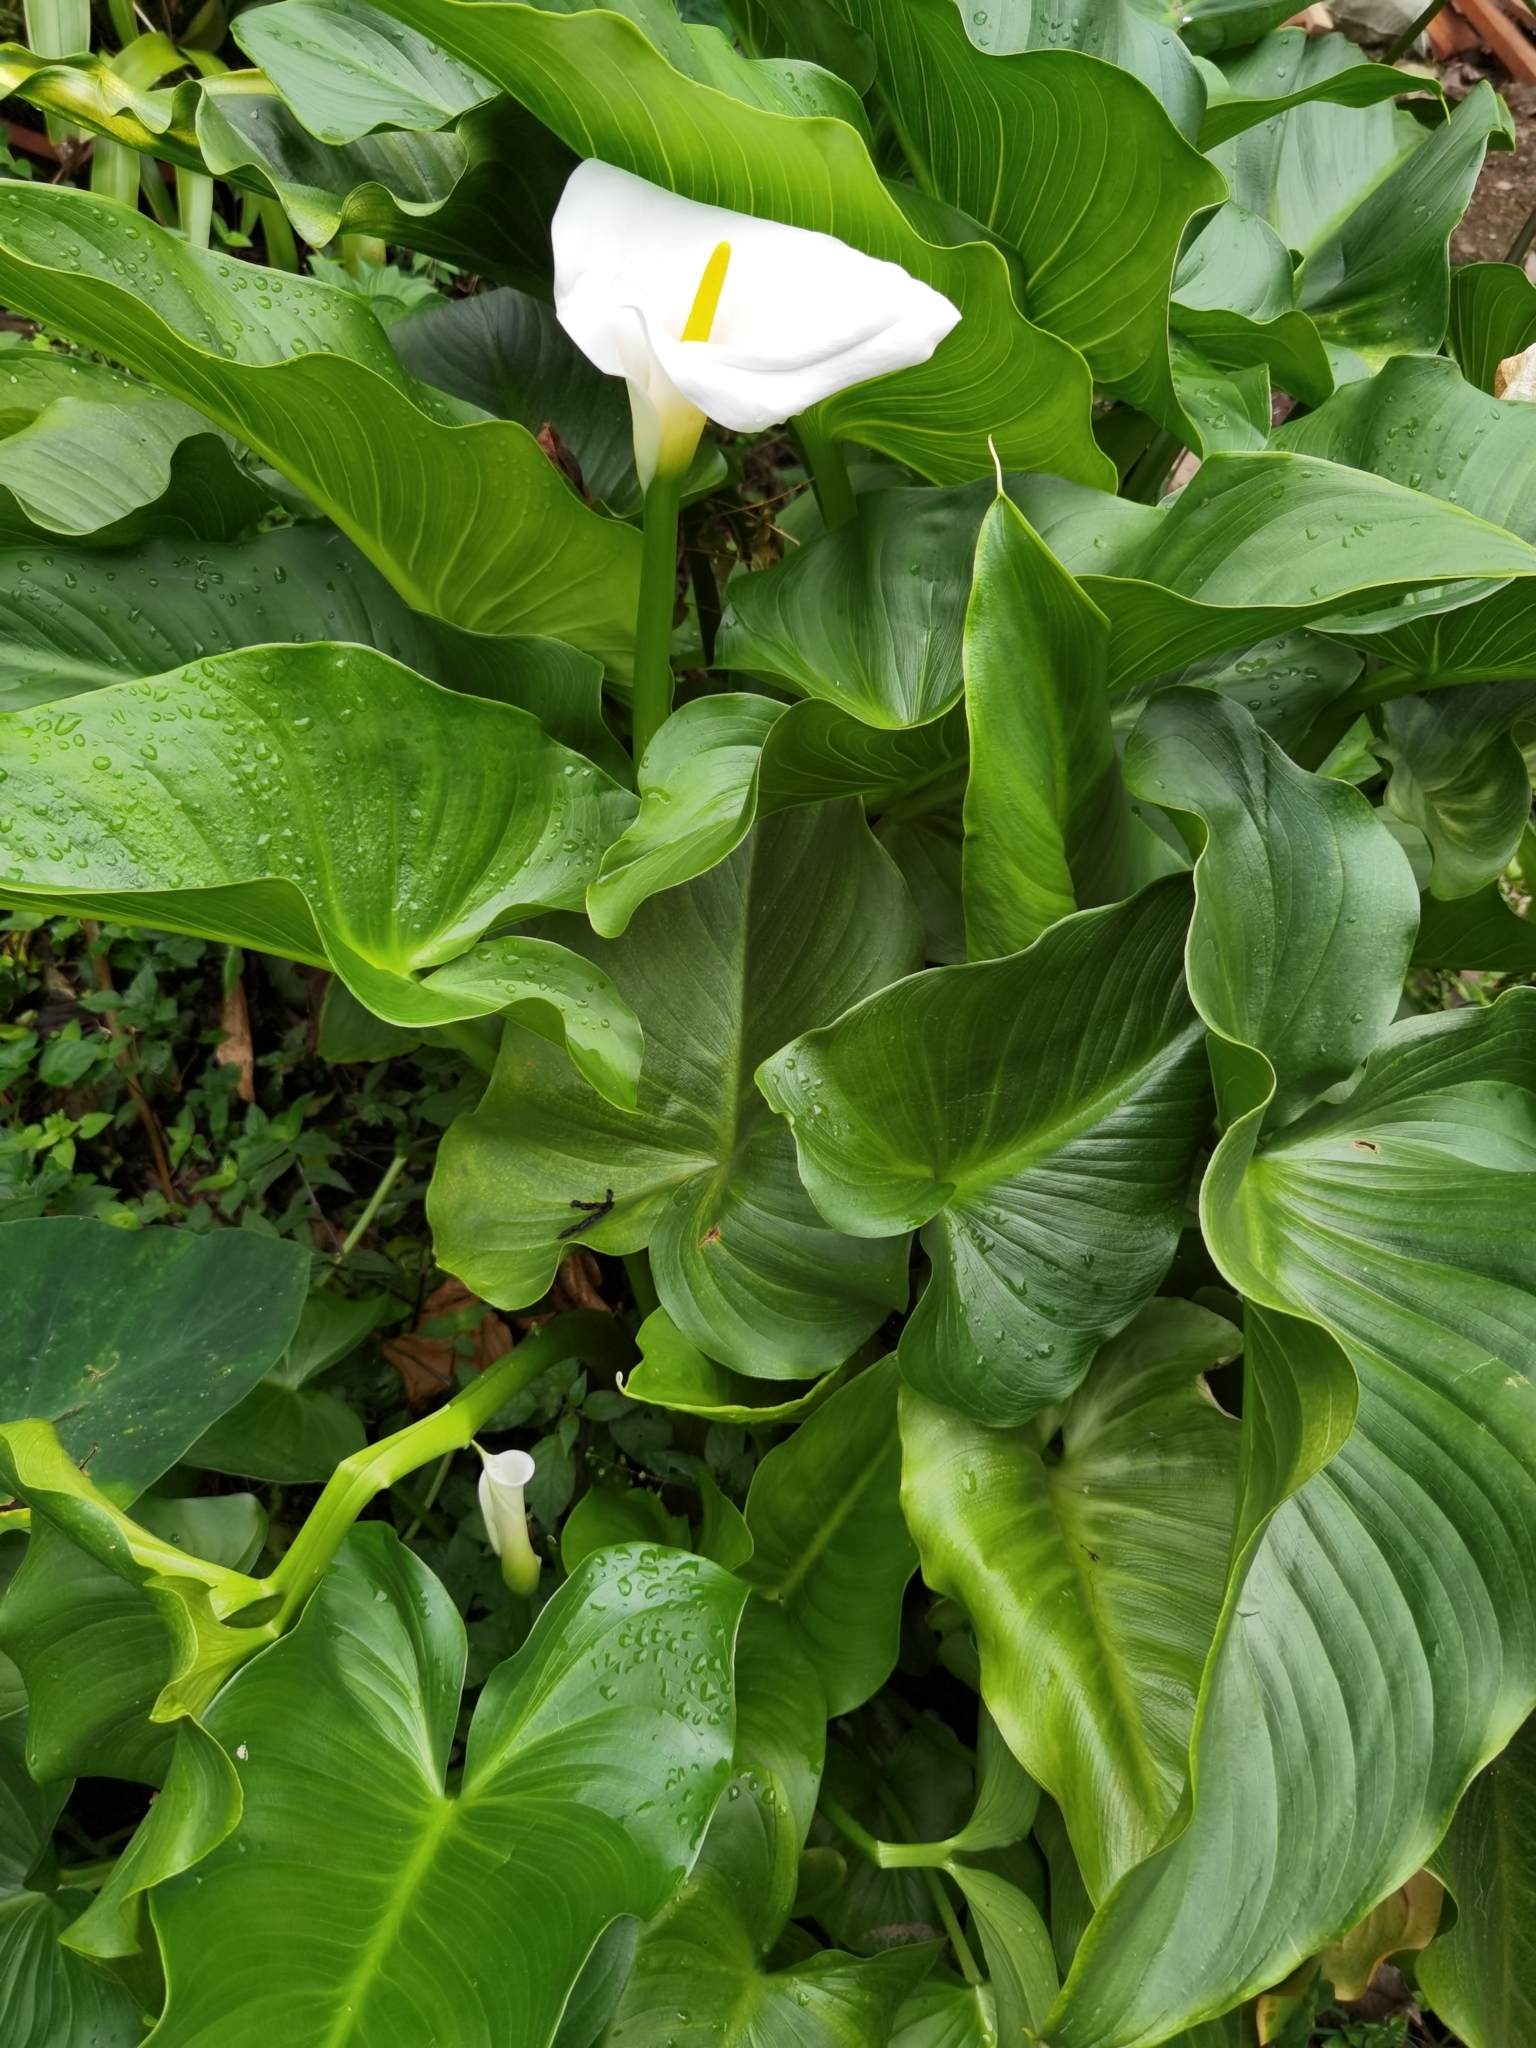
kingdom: Plantae
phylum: Tracheophyta
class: Liliopsida
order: Alismatales
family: Araceae
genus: Zantedeschia
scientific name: Zantedeschia aethiopica
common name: Altar-lily
